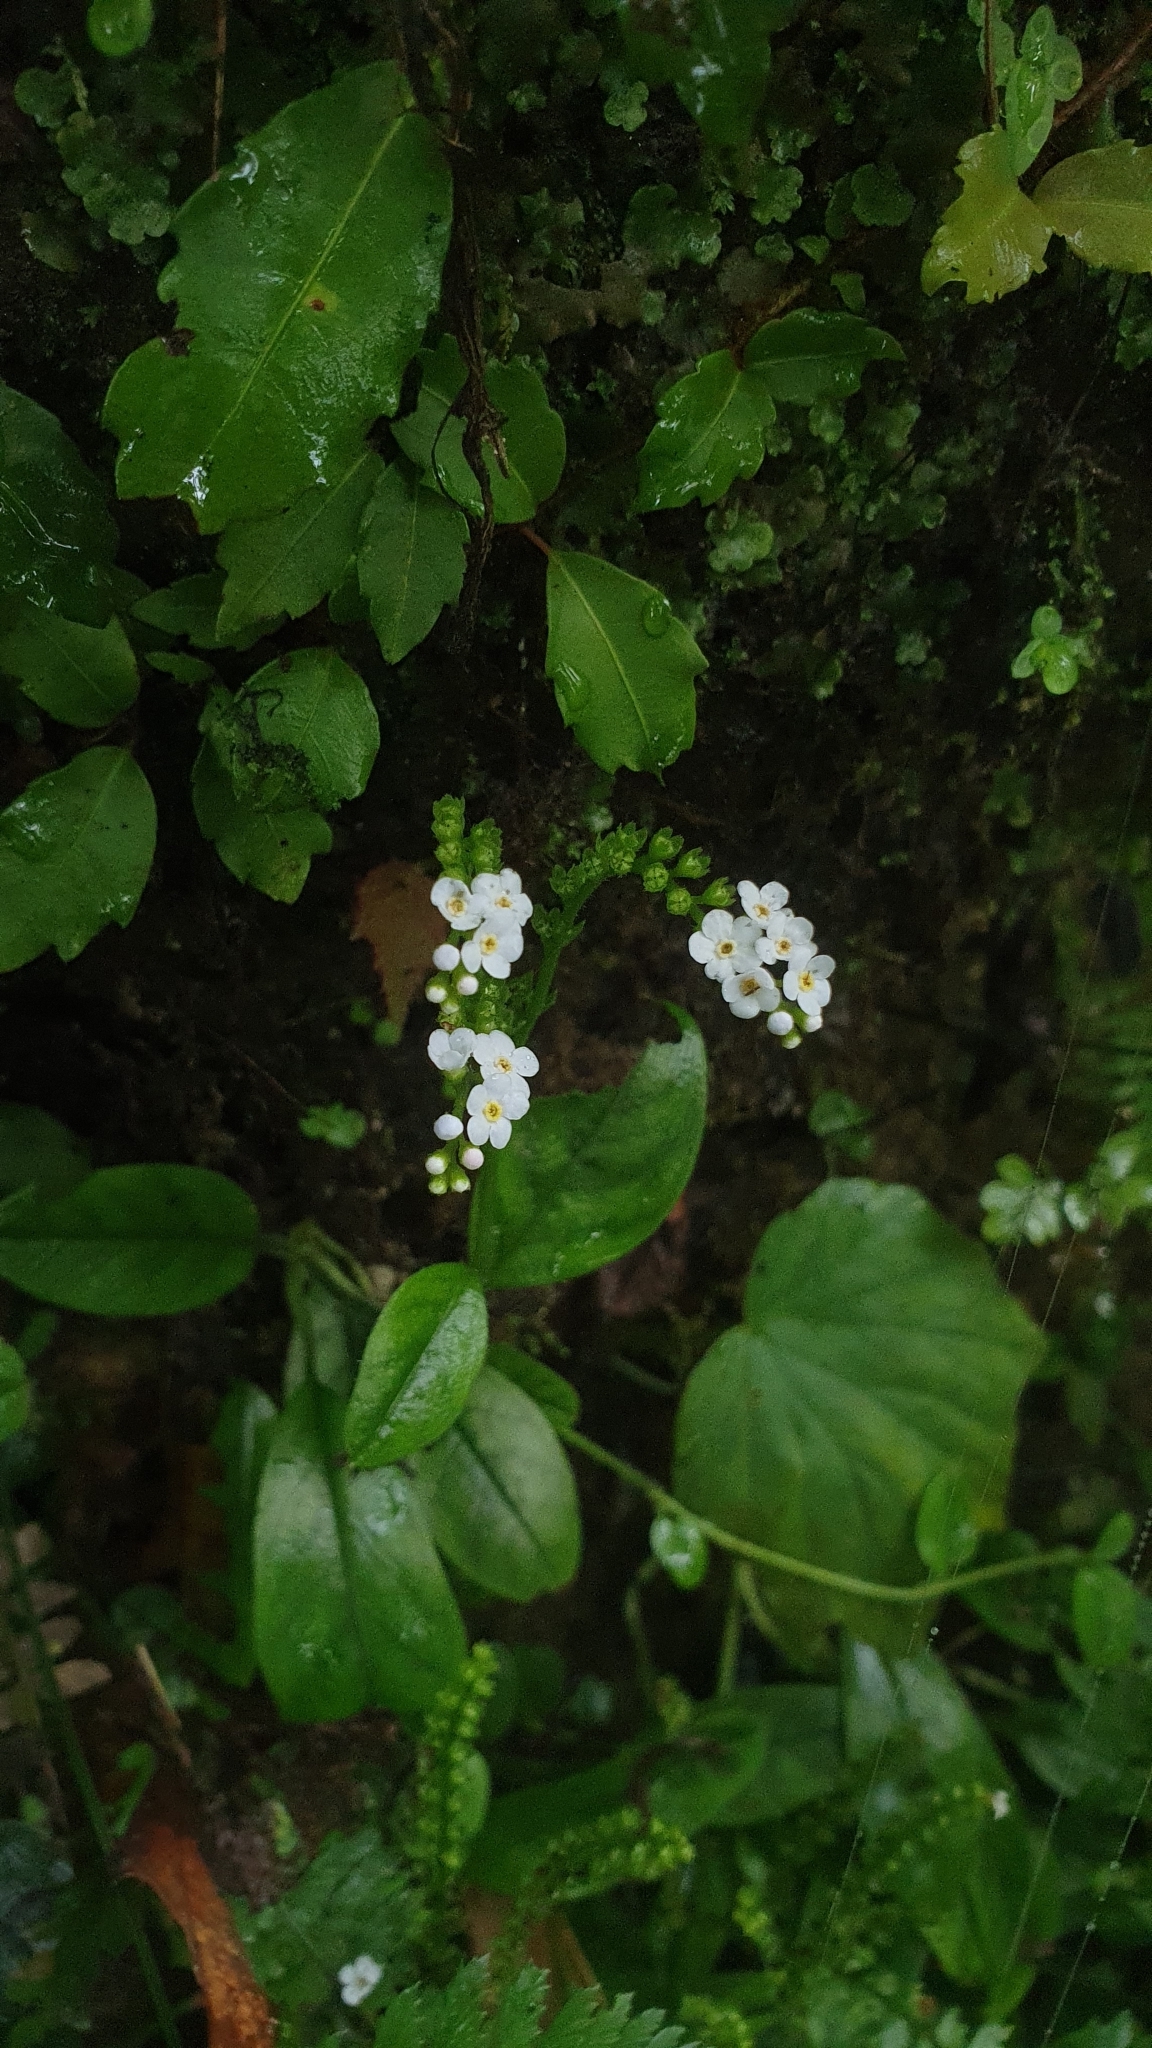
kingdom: Plantae
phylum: Tracheophyta
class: Magnoliopsida
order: Boraginales
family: Boraginaceae
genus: Trigonotis
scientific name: Trigonotis formosana
